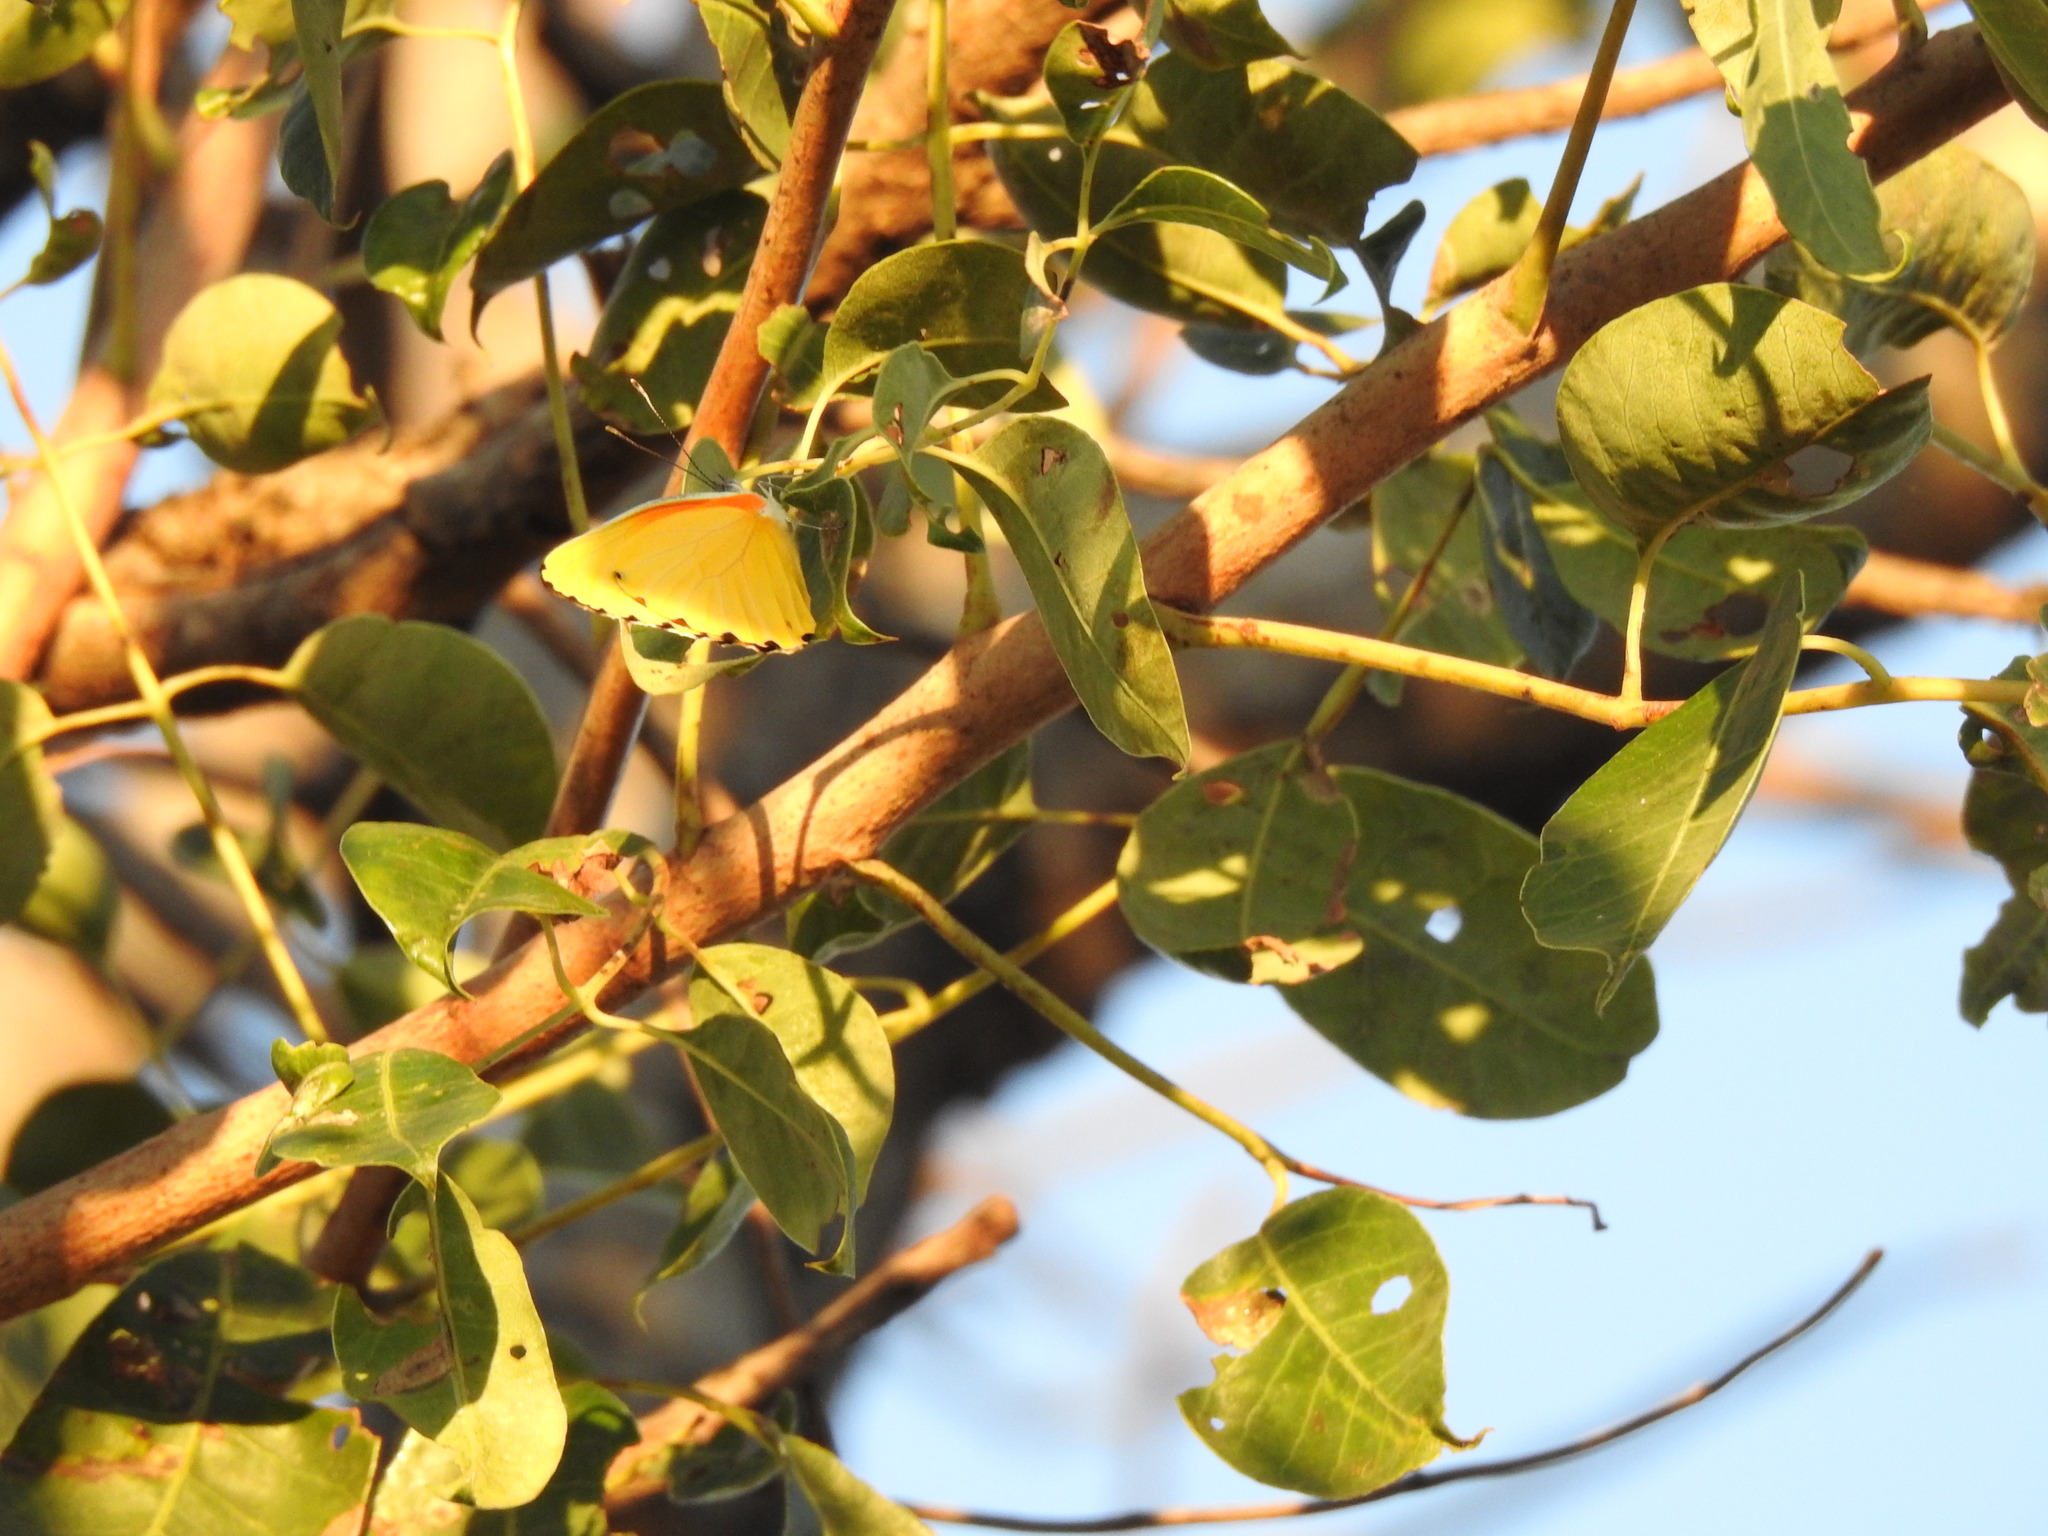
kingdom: Plantae
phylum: Tracheophyta
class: Magnoliopsida
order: Sapindales
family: Anacardiaceae
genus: Sclerocarya
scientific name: Sclerocarya birrea
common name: Marula
